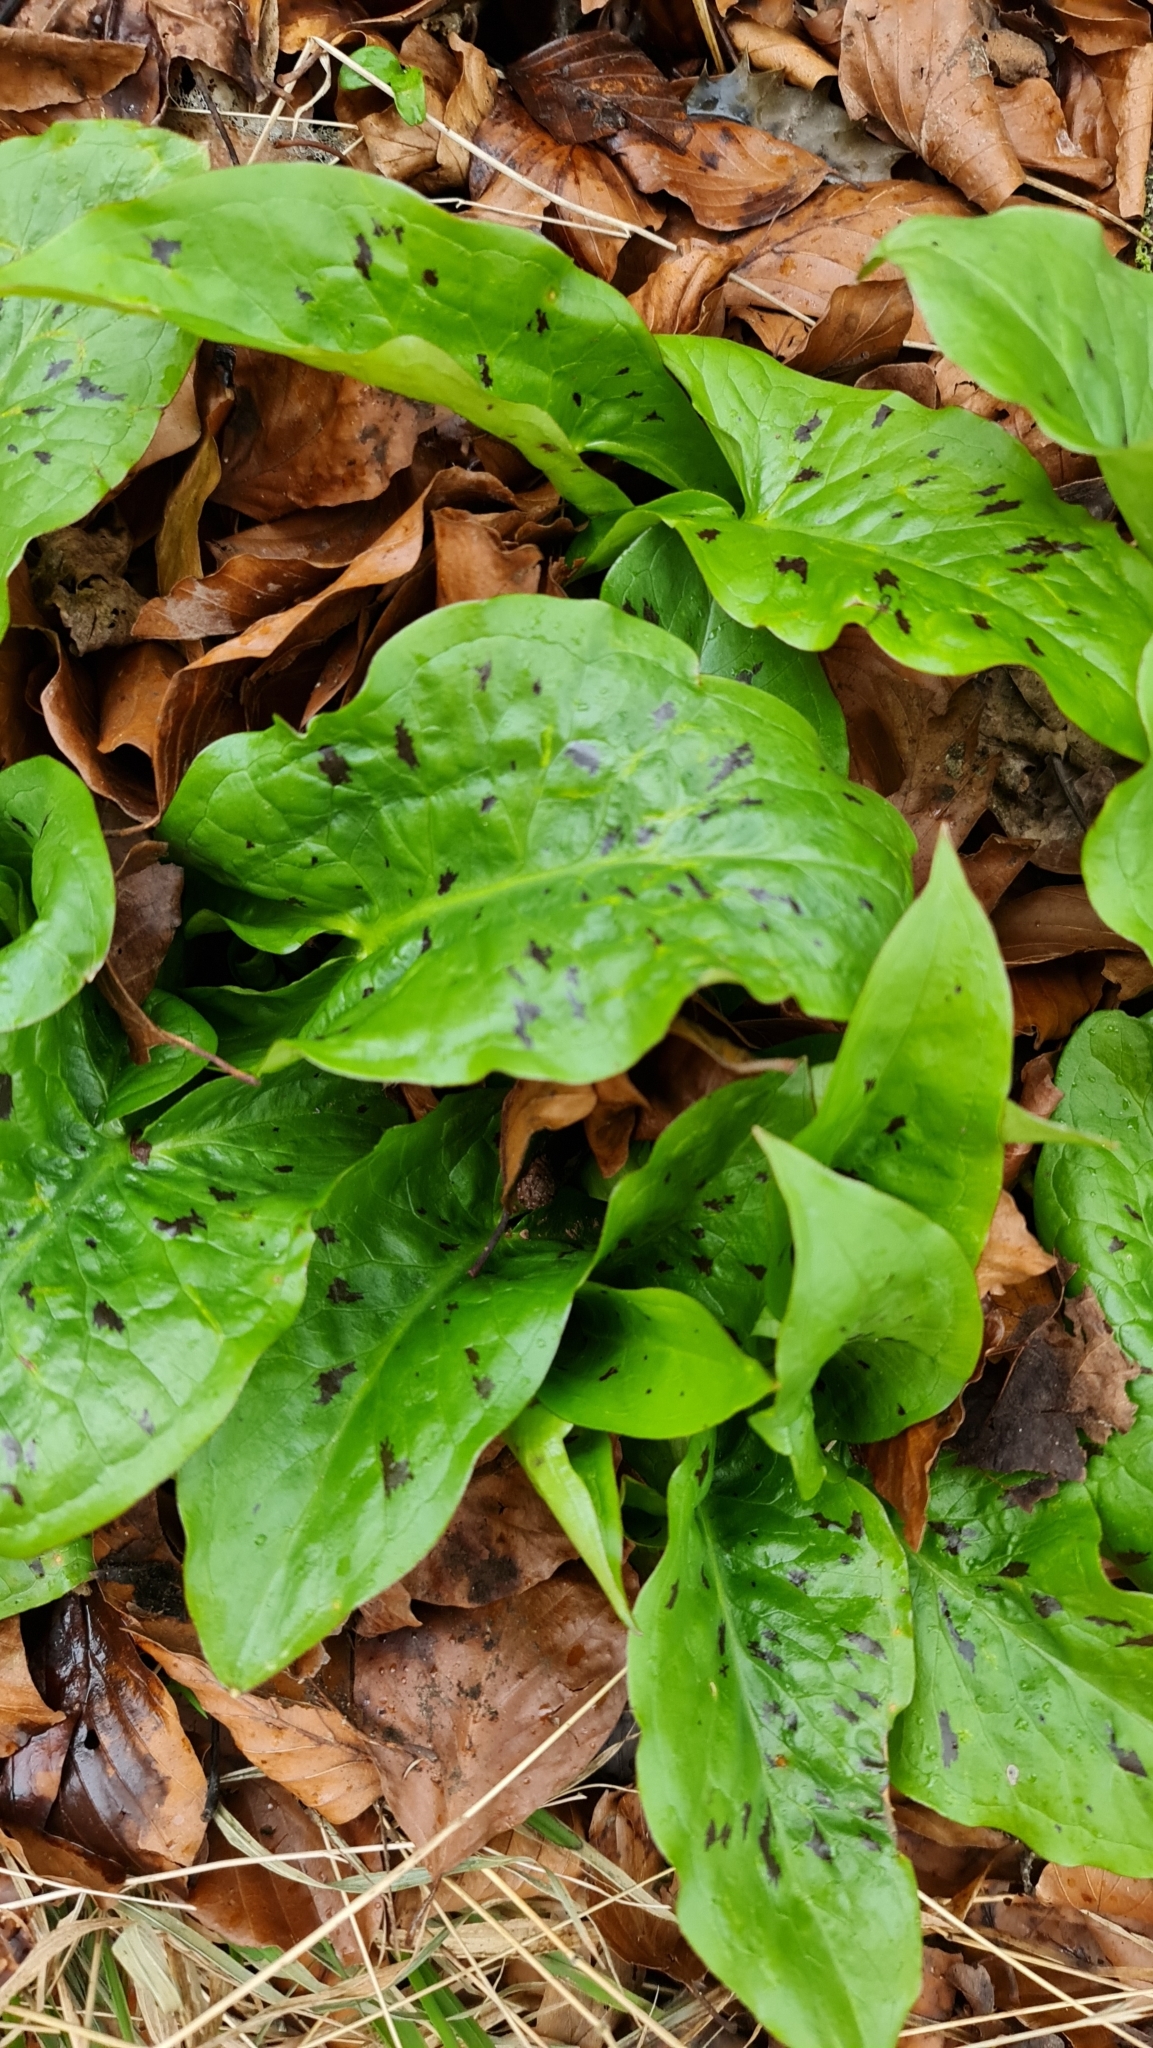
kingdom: Plantae
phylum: Tracheophyta
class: Liliopsida
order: Alismatales
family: Araceae
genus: Arum
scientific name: Arum maculatum
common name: Lords-and-ladies
